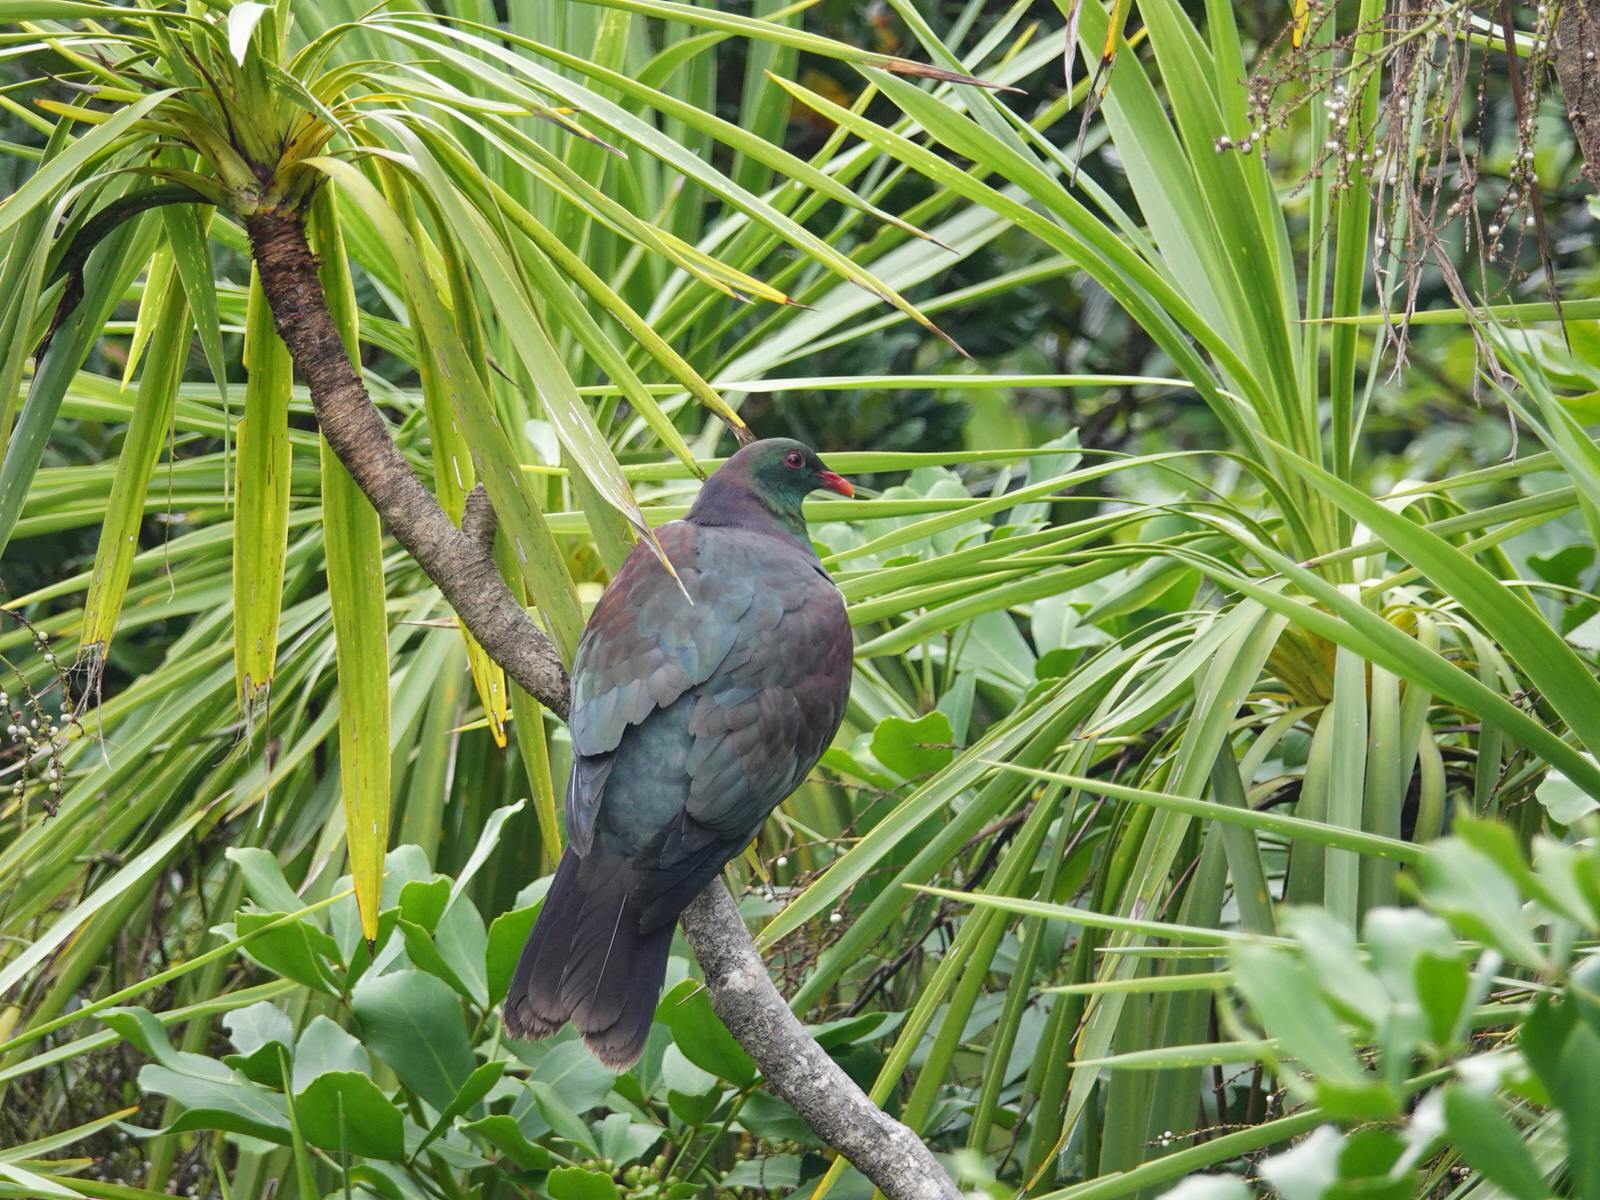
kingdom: Animalia
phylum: Chordata
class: Aves
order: Columbiformes
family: Columbidae
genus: Hemiphaga
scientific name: Hemiphaga novaeseelandiae
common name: New zealand pigeon
